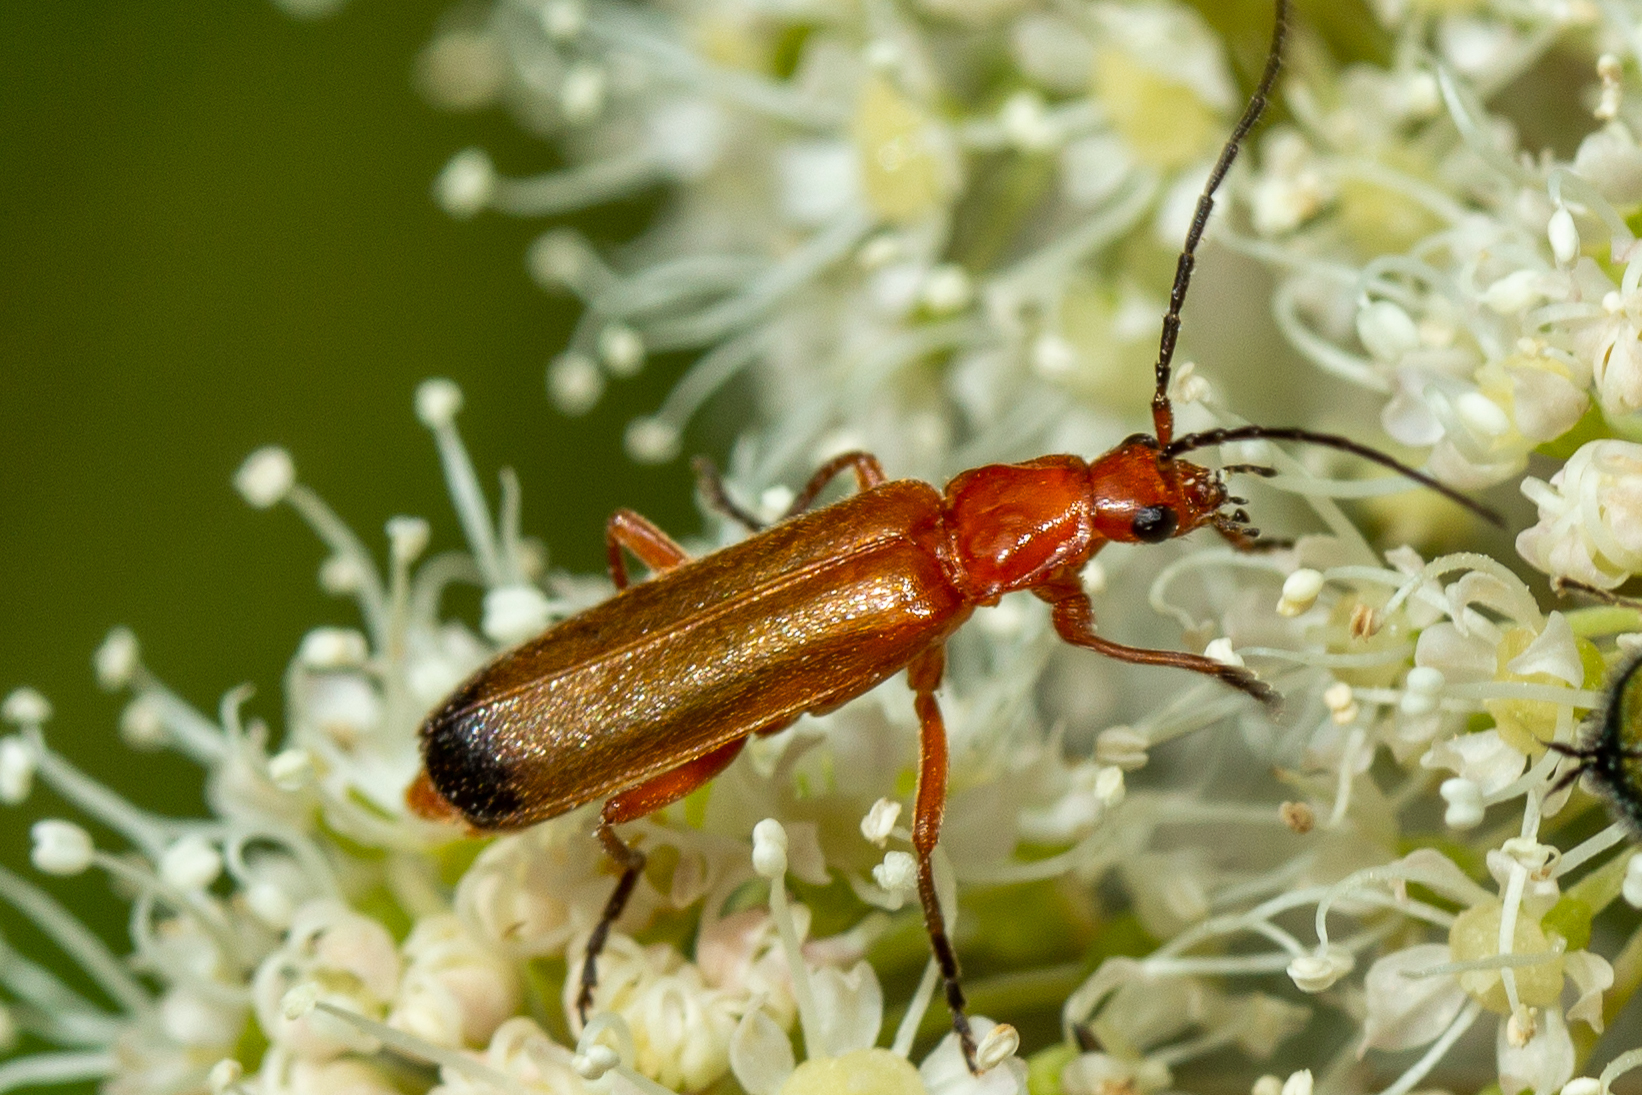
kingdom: Animalia
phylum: Arthropoda
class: Insecta
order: Coleoptera
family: Cantharidae
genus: Rhagonycha
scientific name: Rhagonycha fulva
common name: Common red soldier beetle
